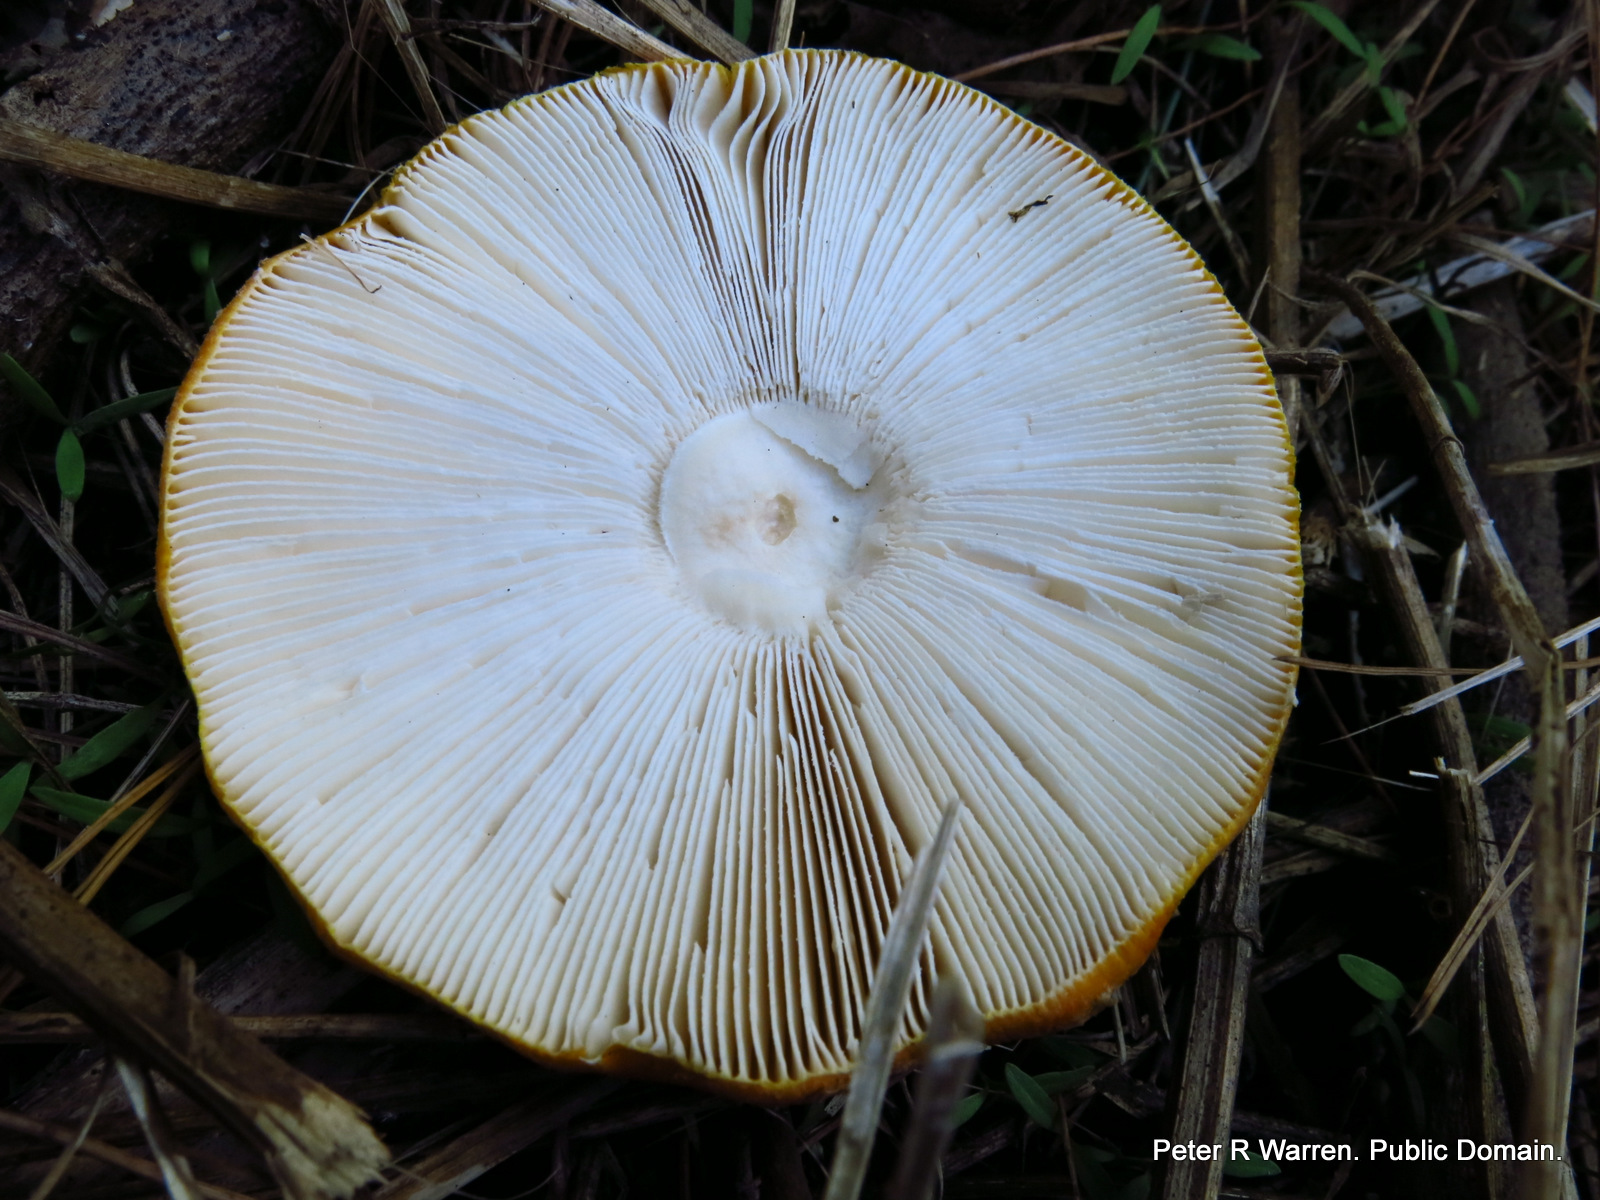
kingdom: Fungi
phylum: Basidiomycota
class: Agaricomycetes
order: Agaricales
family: Amanitaceae
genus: Amanita
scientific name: Amanita muscaria
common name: Fly agaric
